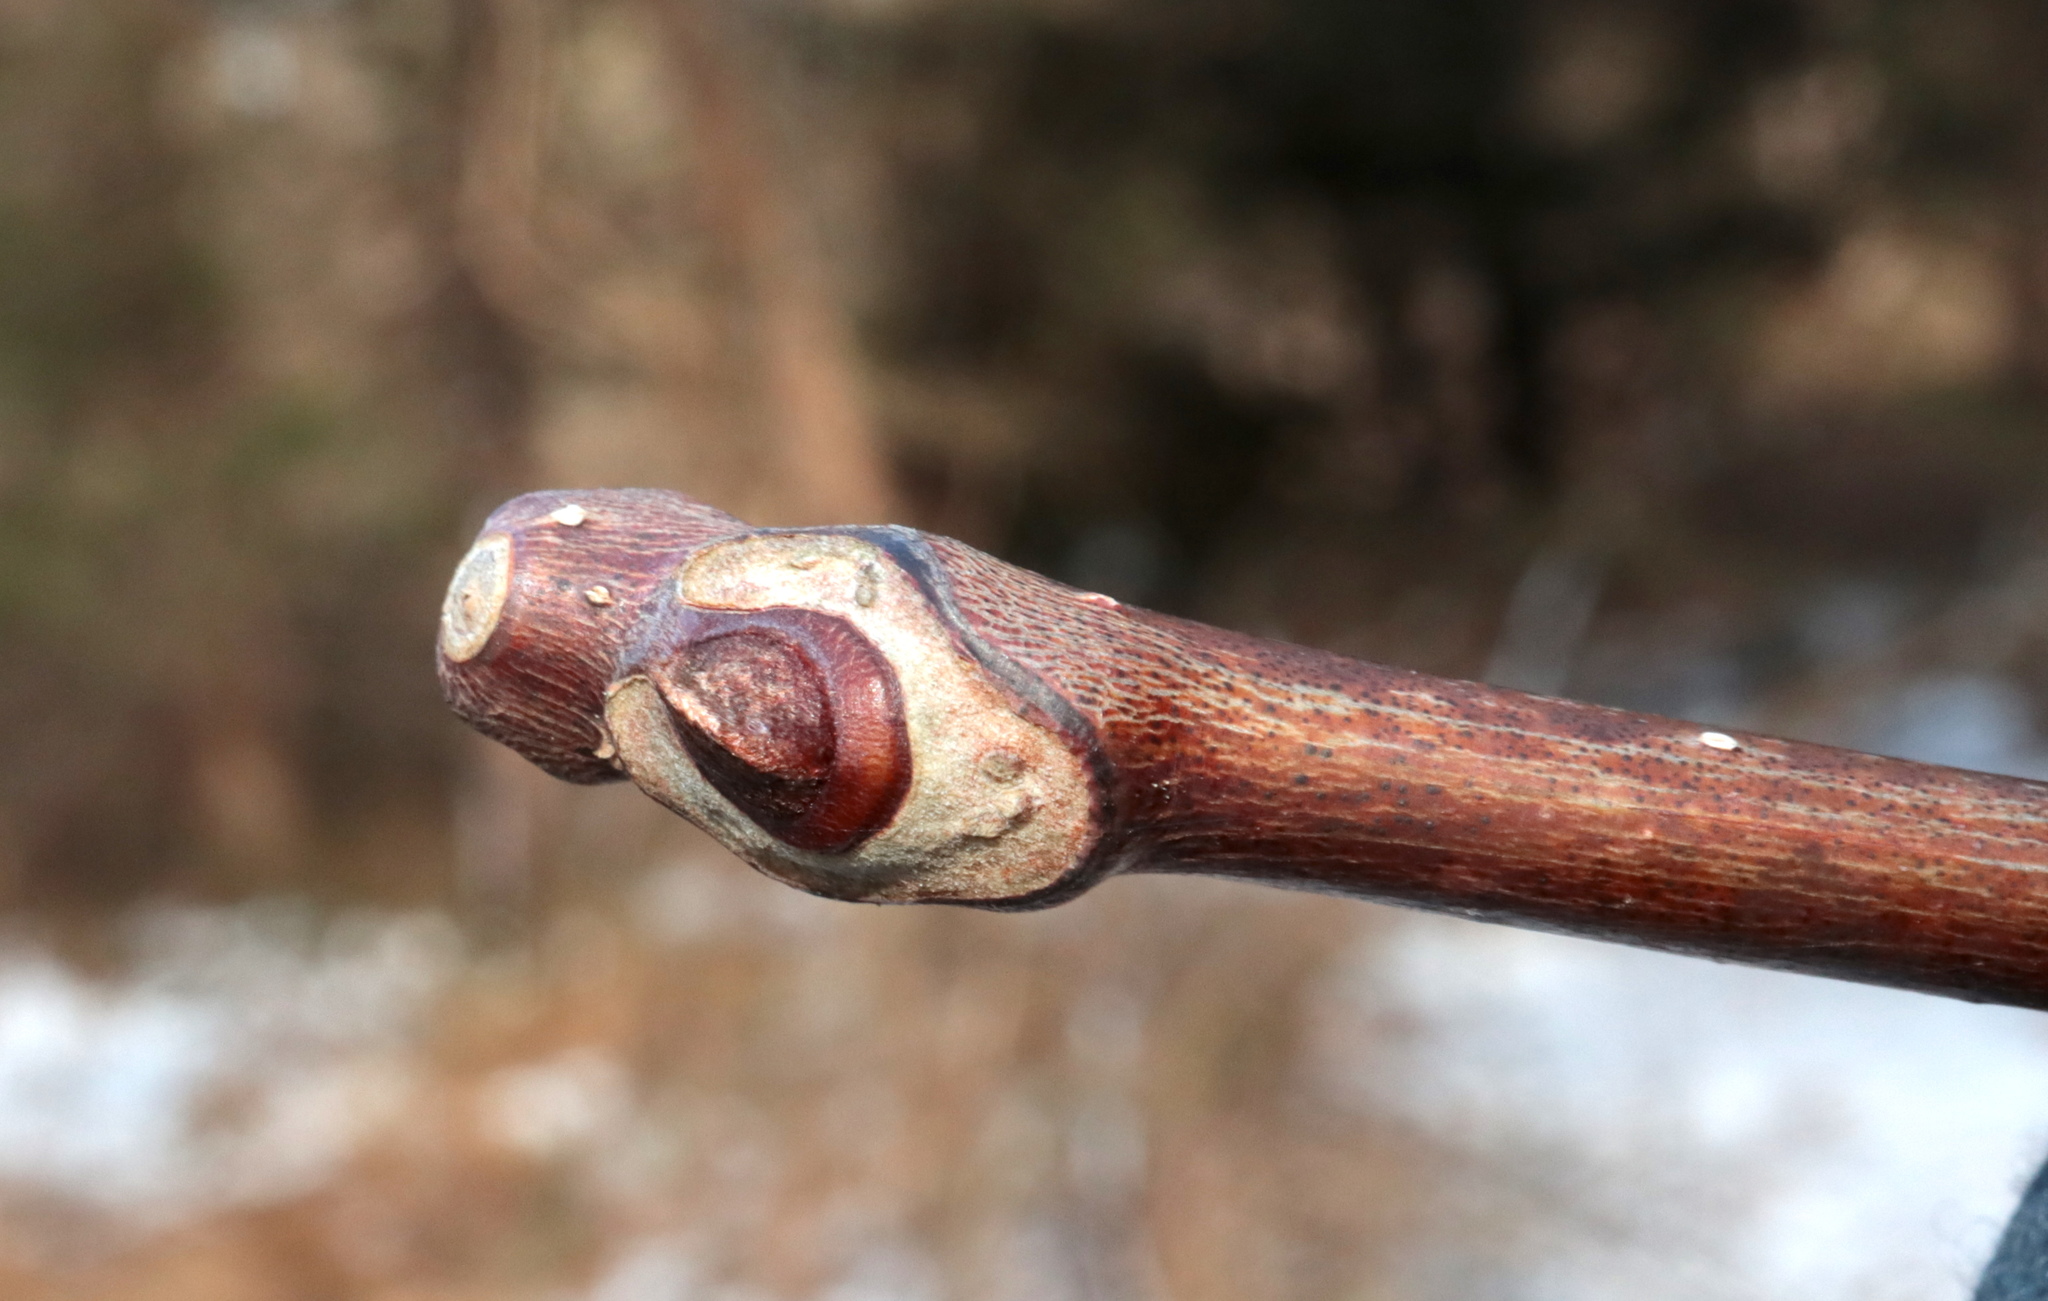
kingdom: Plantae
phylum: Tracheophyta
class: Magnoliopsida
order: Sapindales
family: Rutaceae
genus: Phellodendron
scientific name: Phellodendron amurense
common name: Amur corktree
